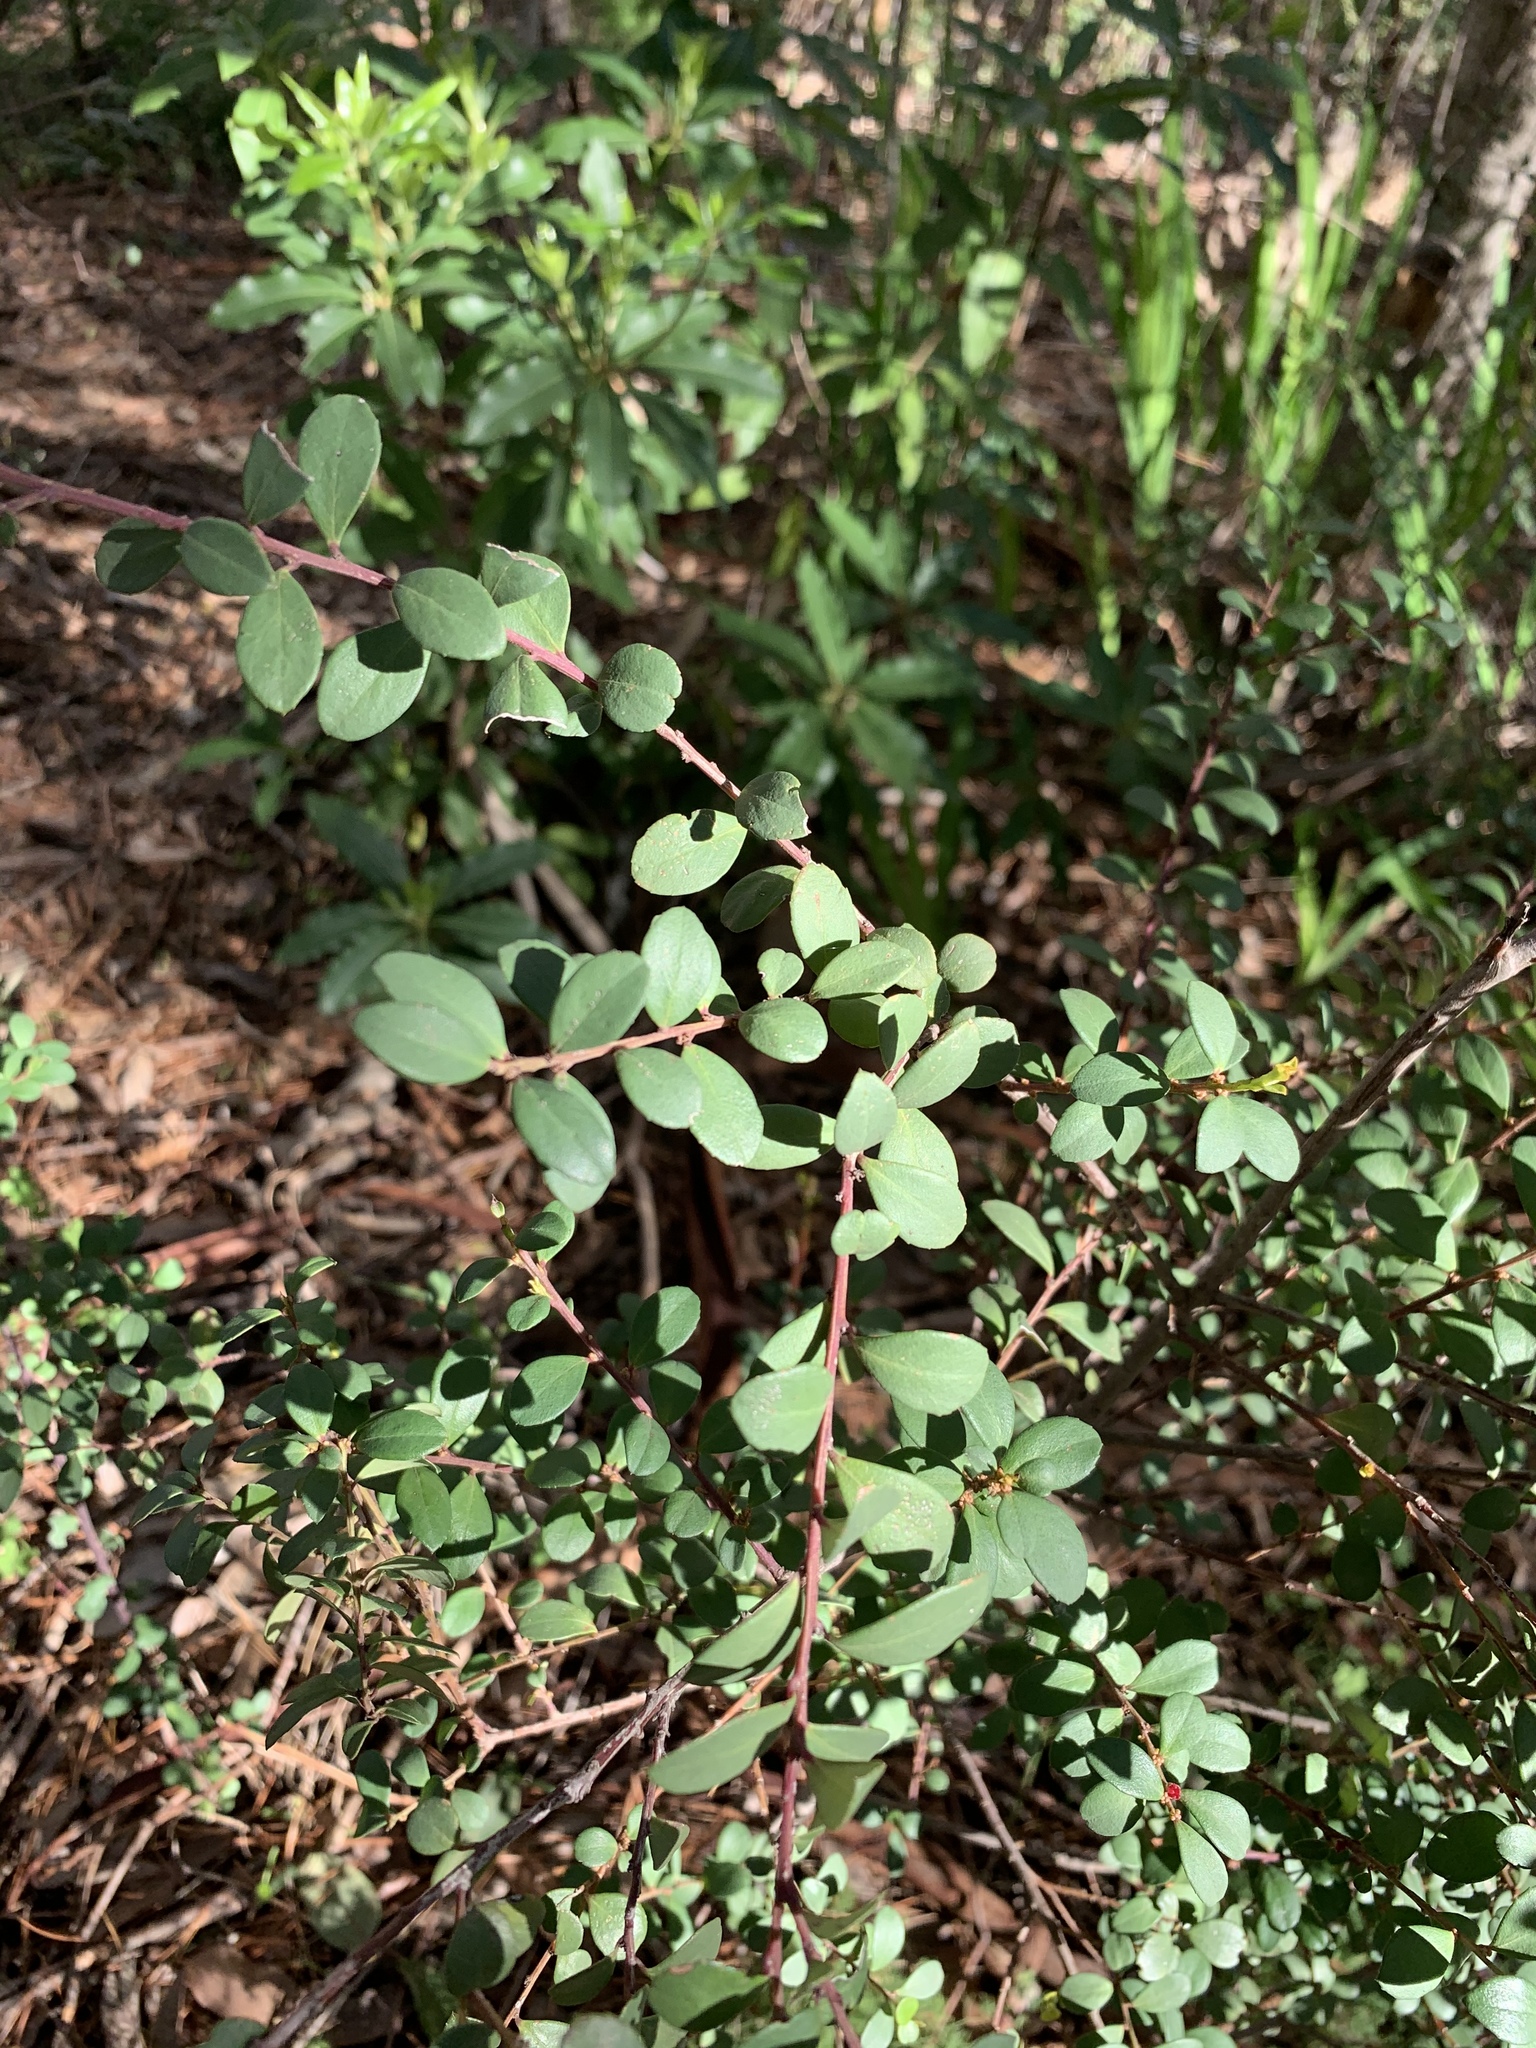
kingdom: Plantae
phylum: Tracheophyta
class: Magnoliopsida
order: Ericales
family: Primulaceae
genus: Myrsine
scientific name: Myrsine africana
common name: African-boxwood
